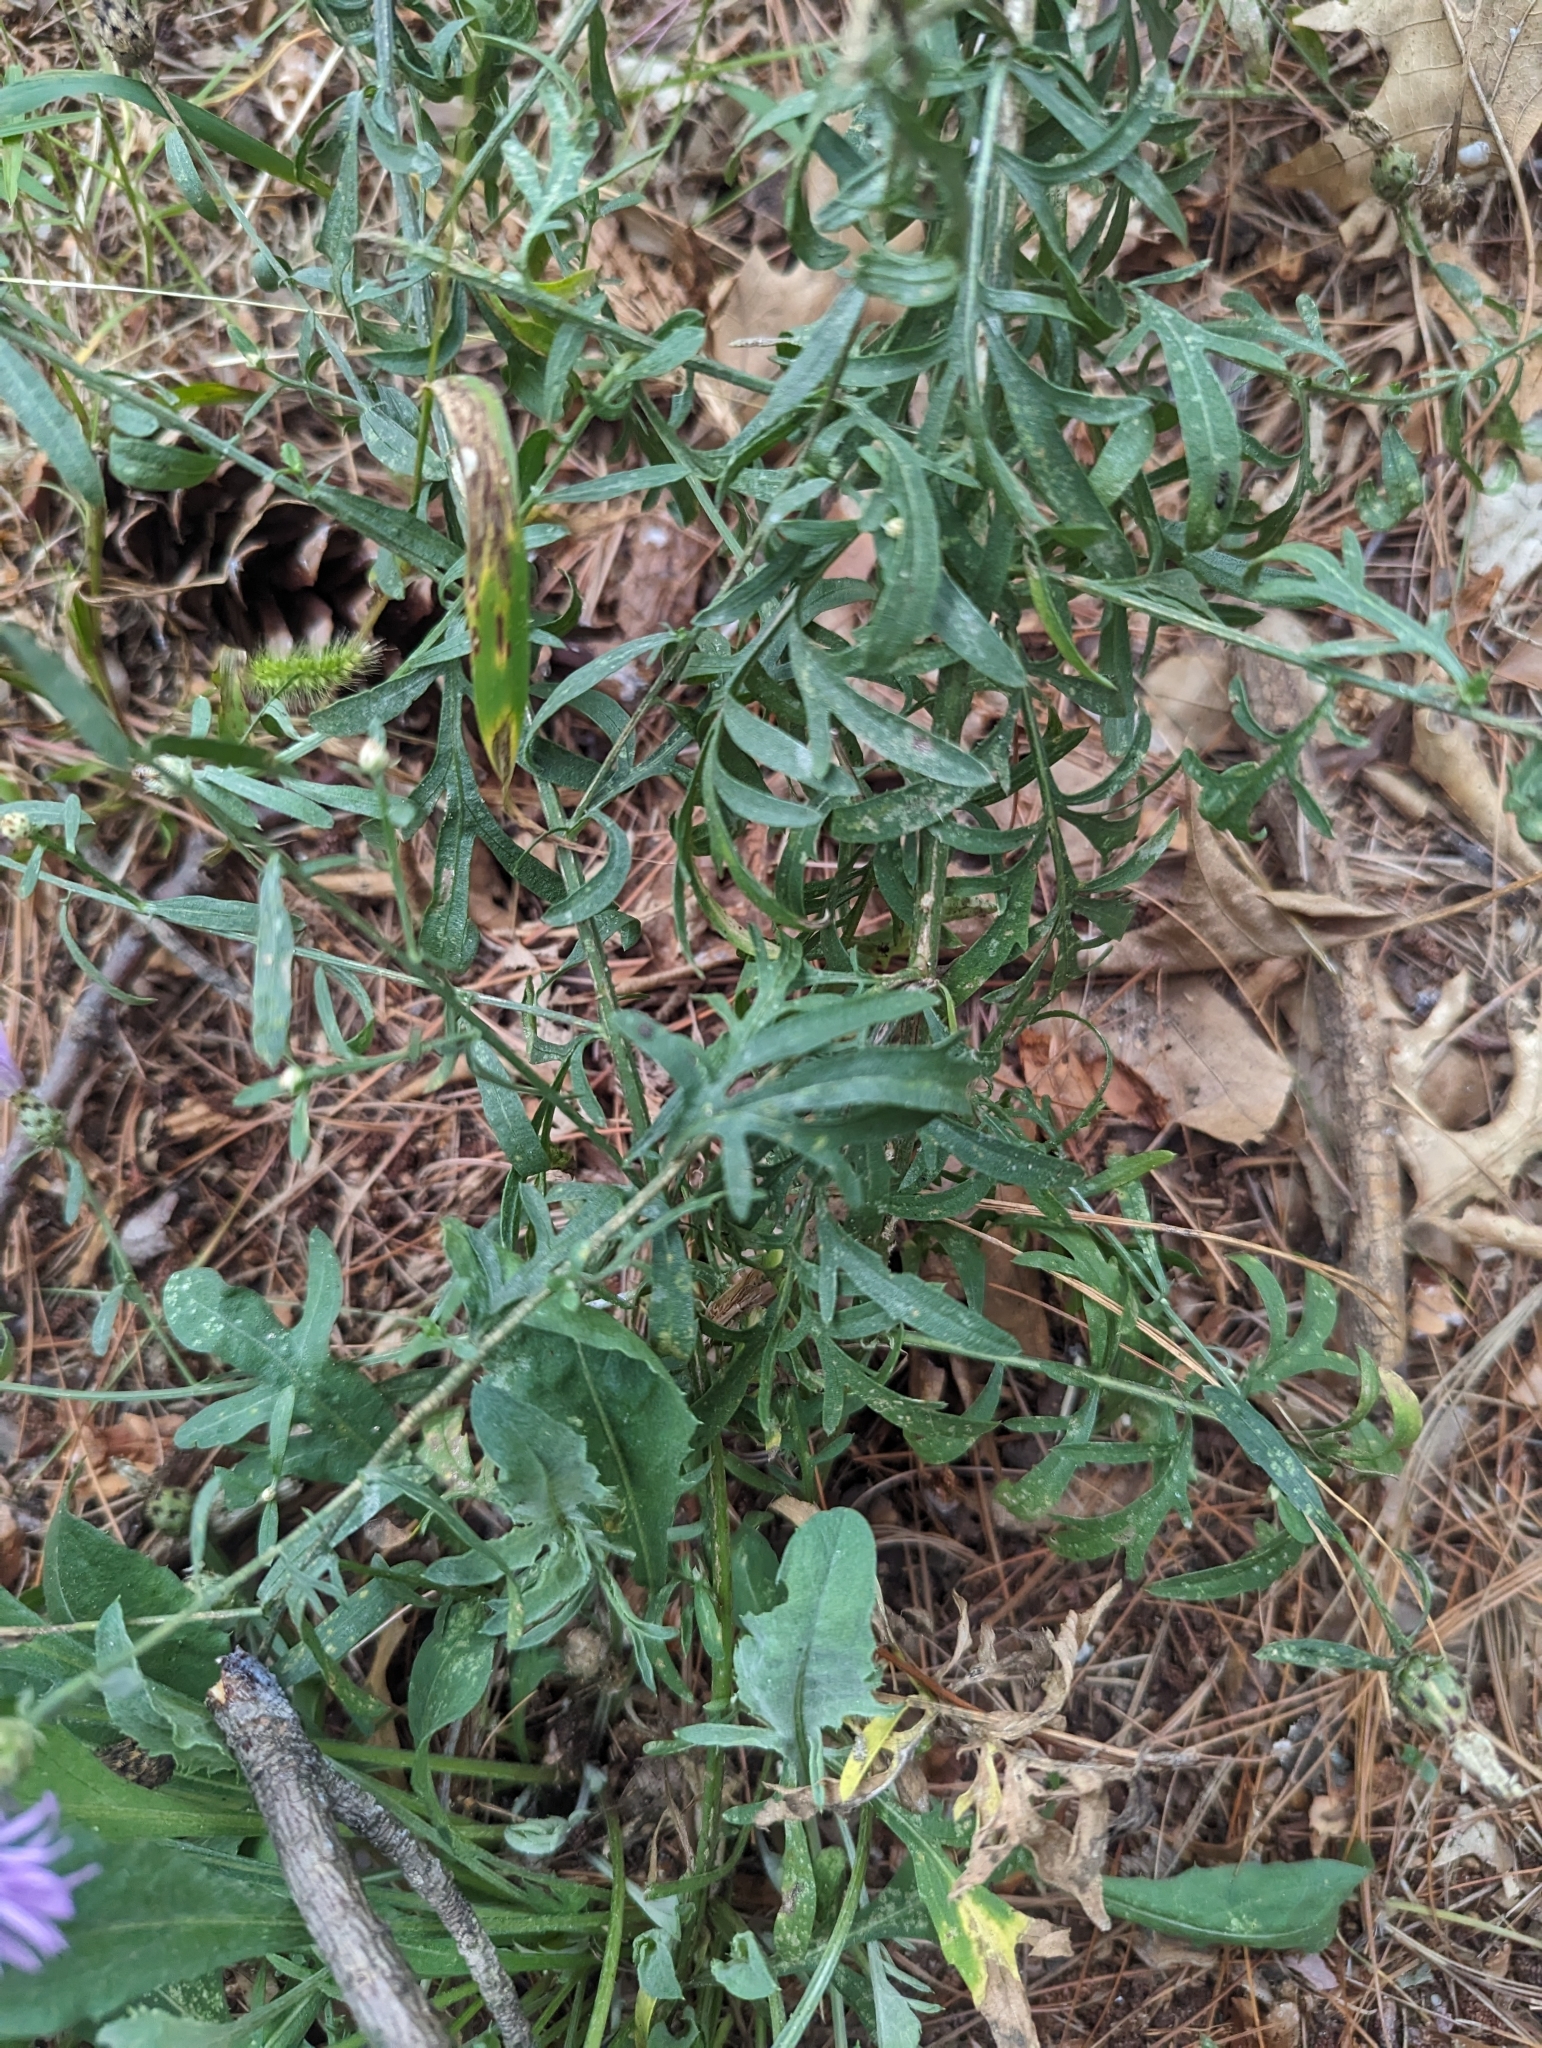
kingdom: Plantae
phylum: Tracheophyta
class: Magnoliopsida
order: Asterales
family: Asteraceae
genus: Centaurea
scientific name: Centaurea stoebe
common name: Spotted knapweed
